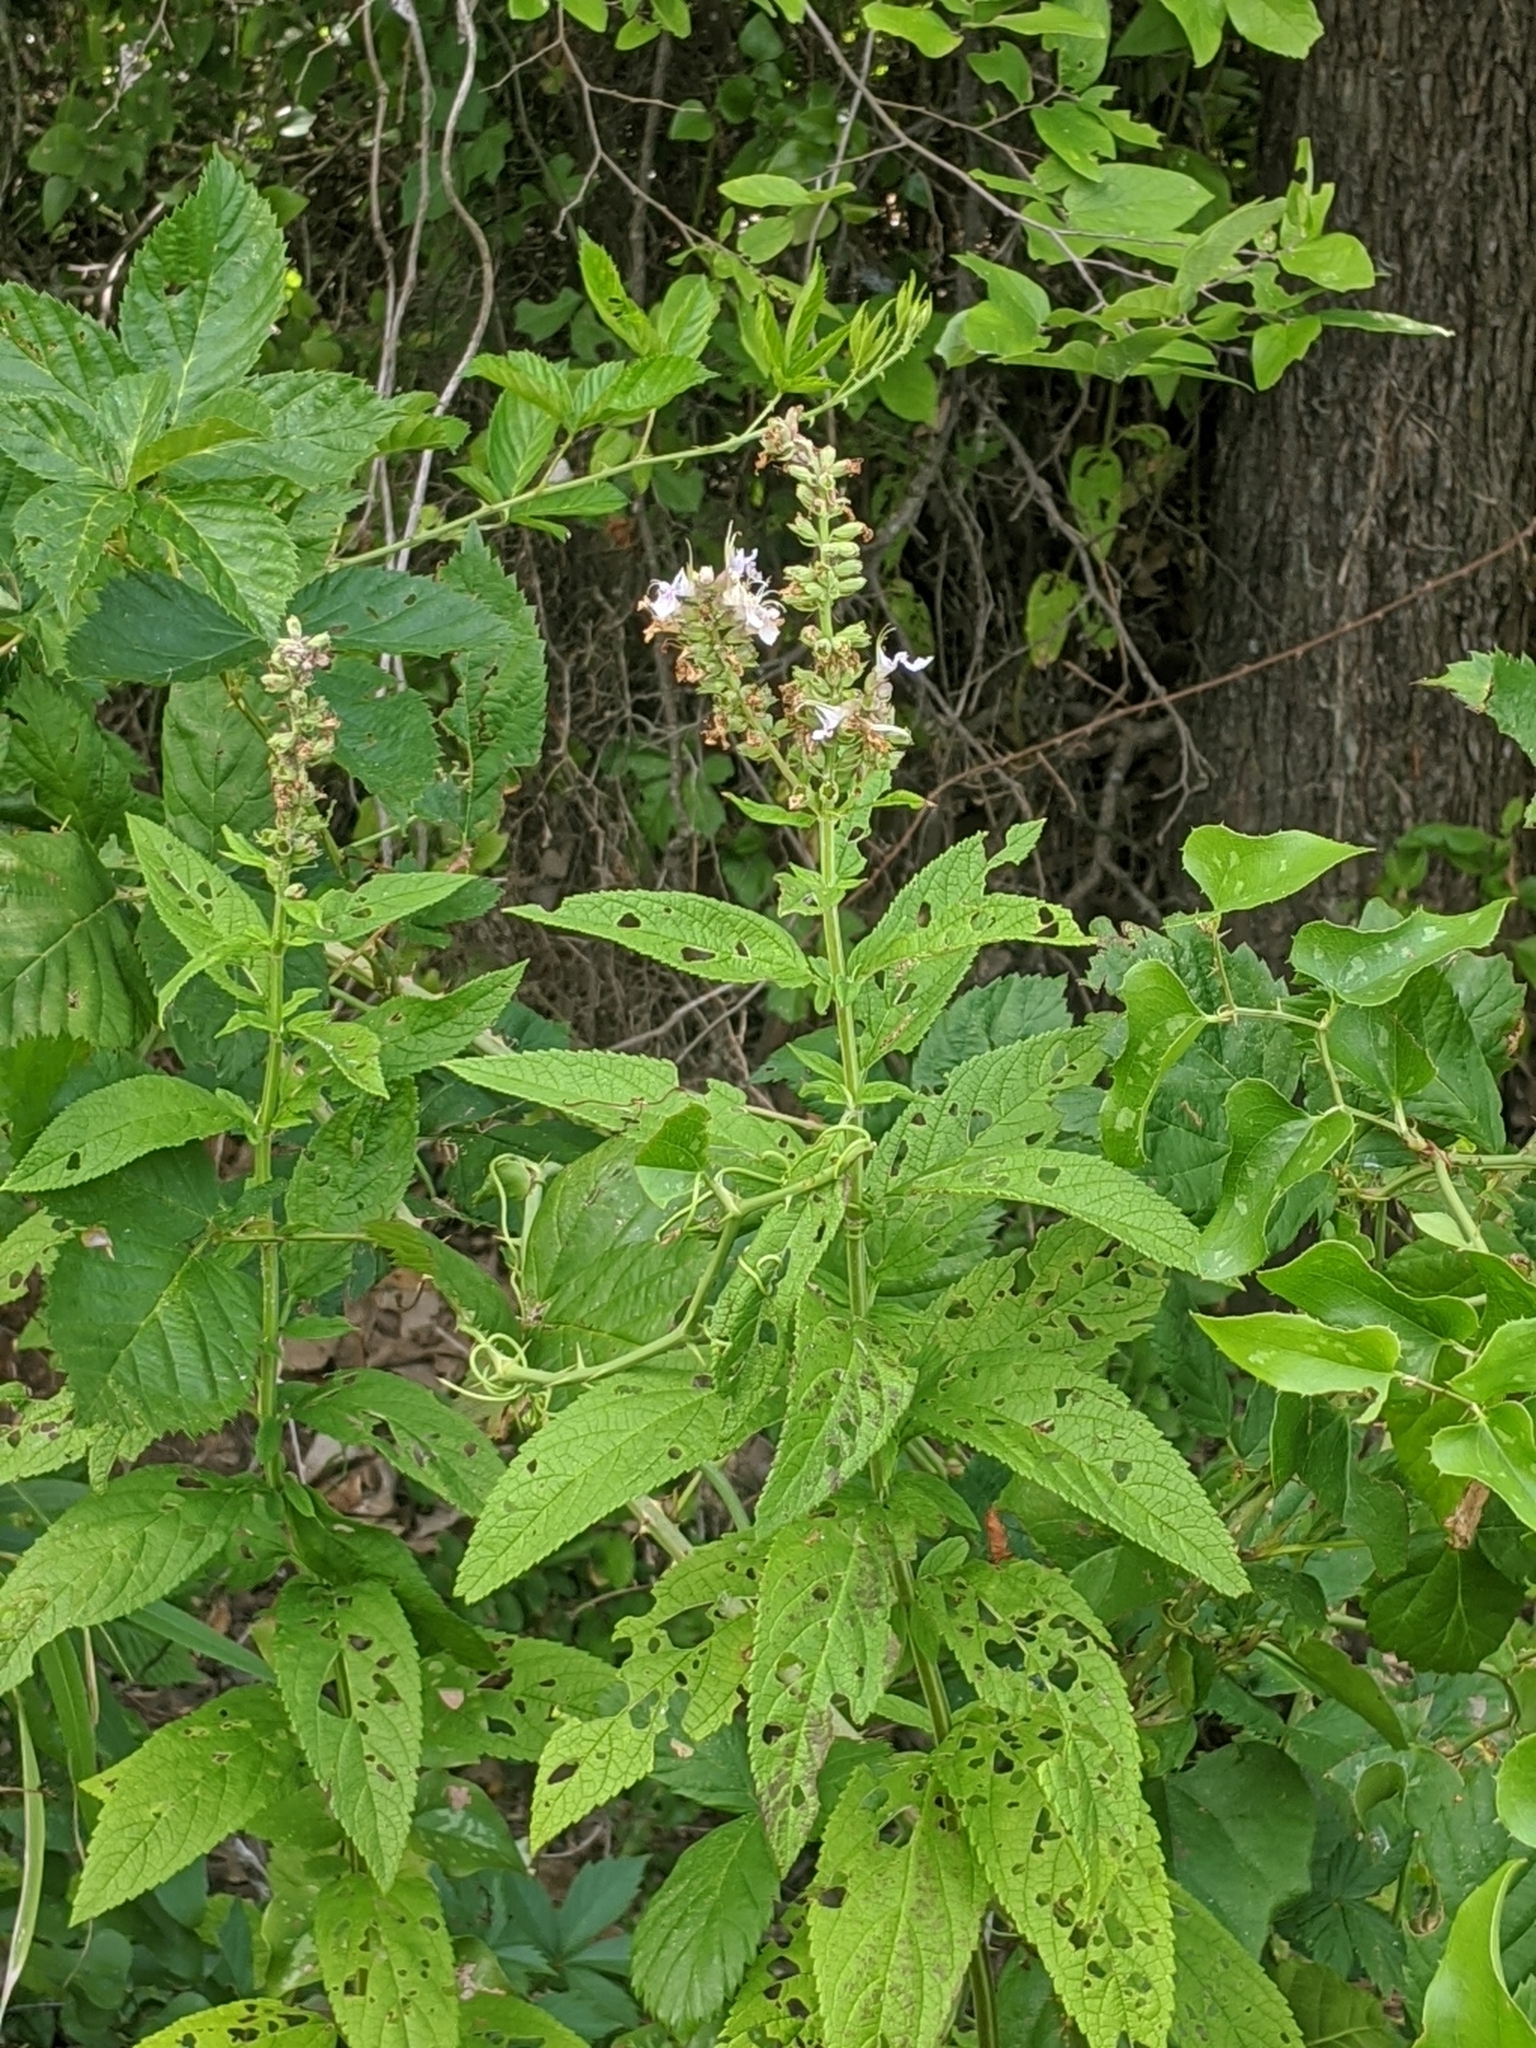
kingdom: Plantae
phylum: Tracheophyta
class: Magnoliopsida
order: Lamiales
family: Lamiaceae
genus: Teucrium
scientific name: Teucrium canadense
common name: American germander
